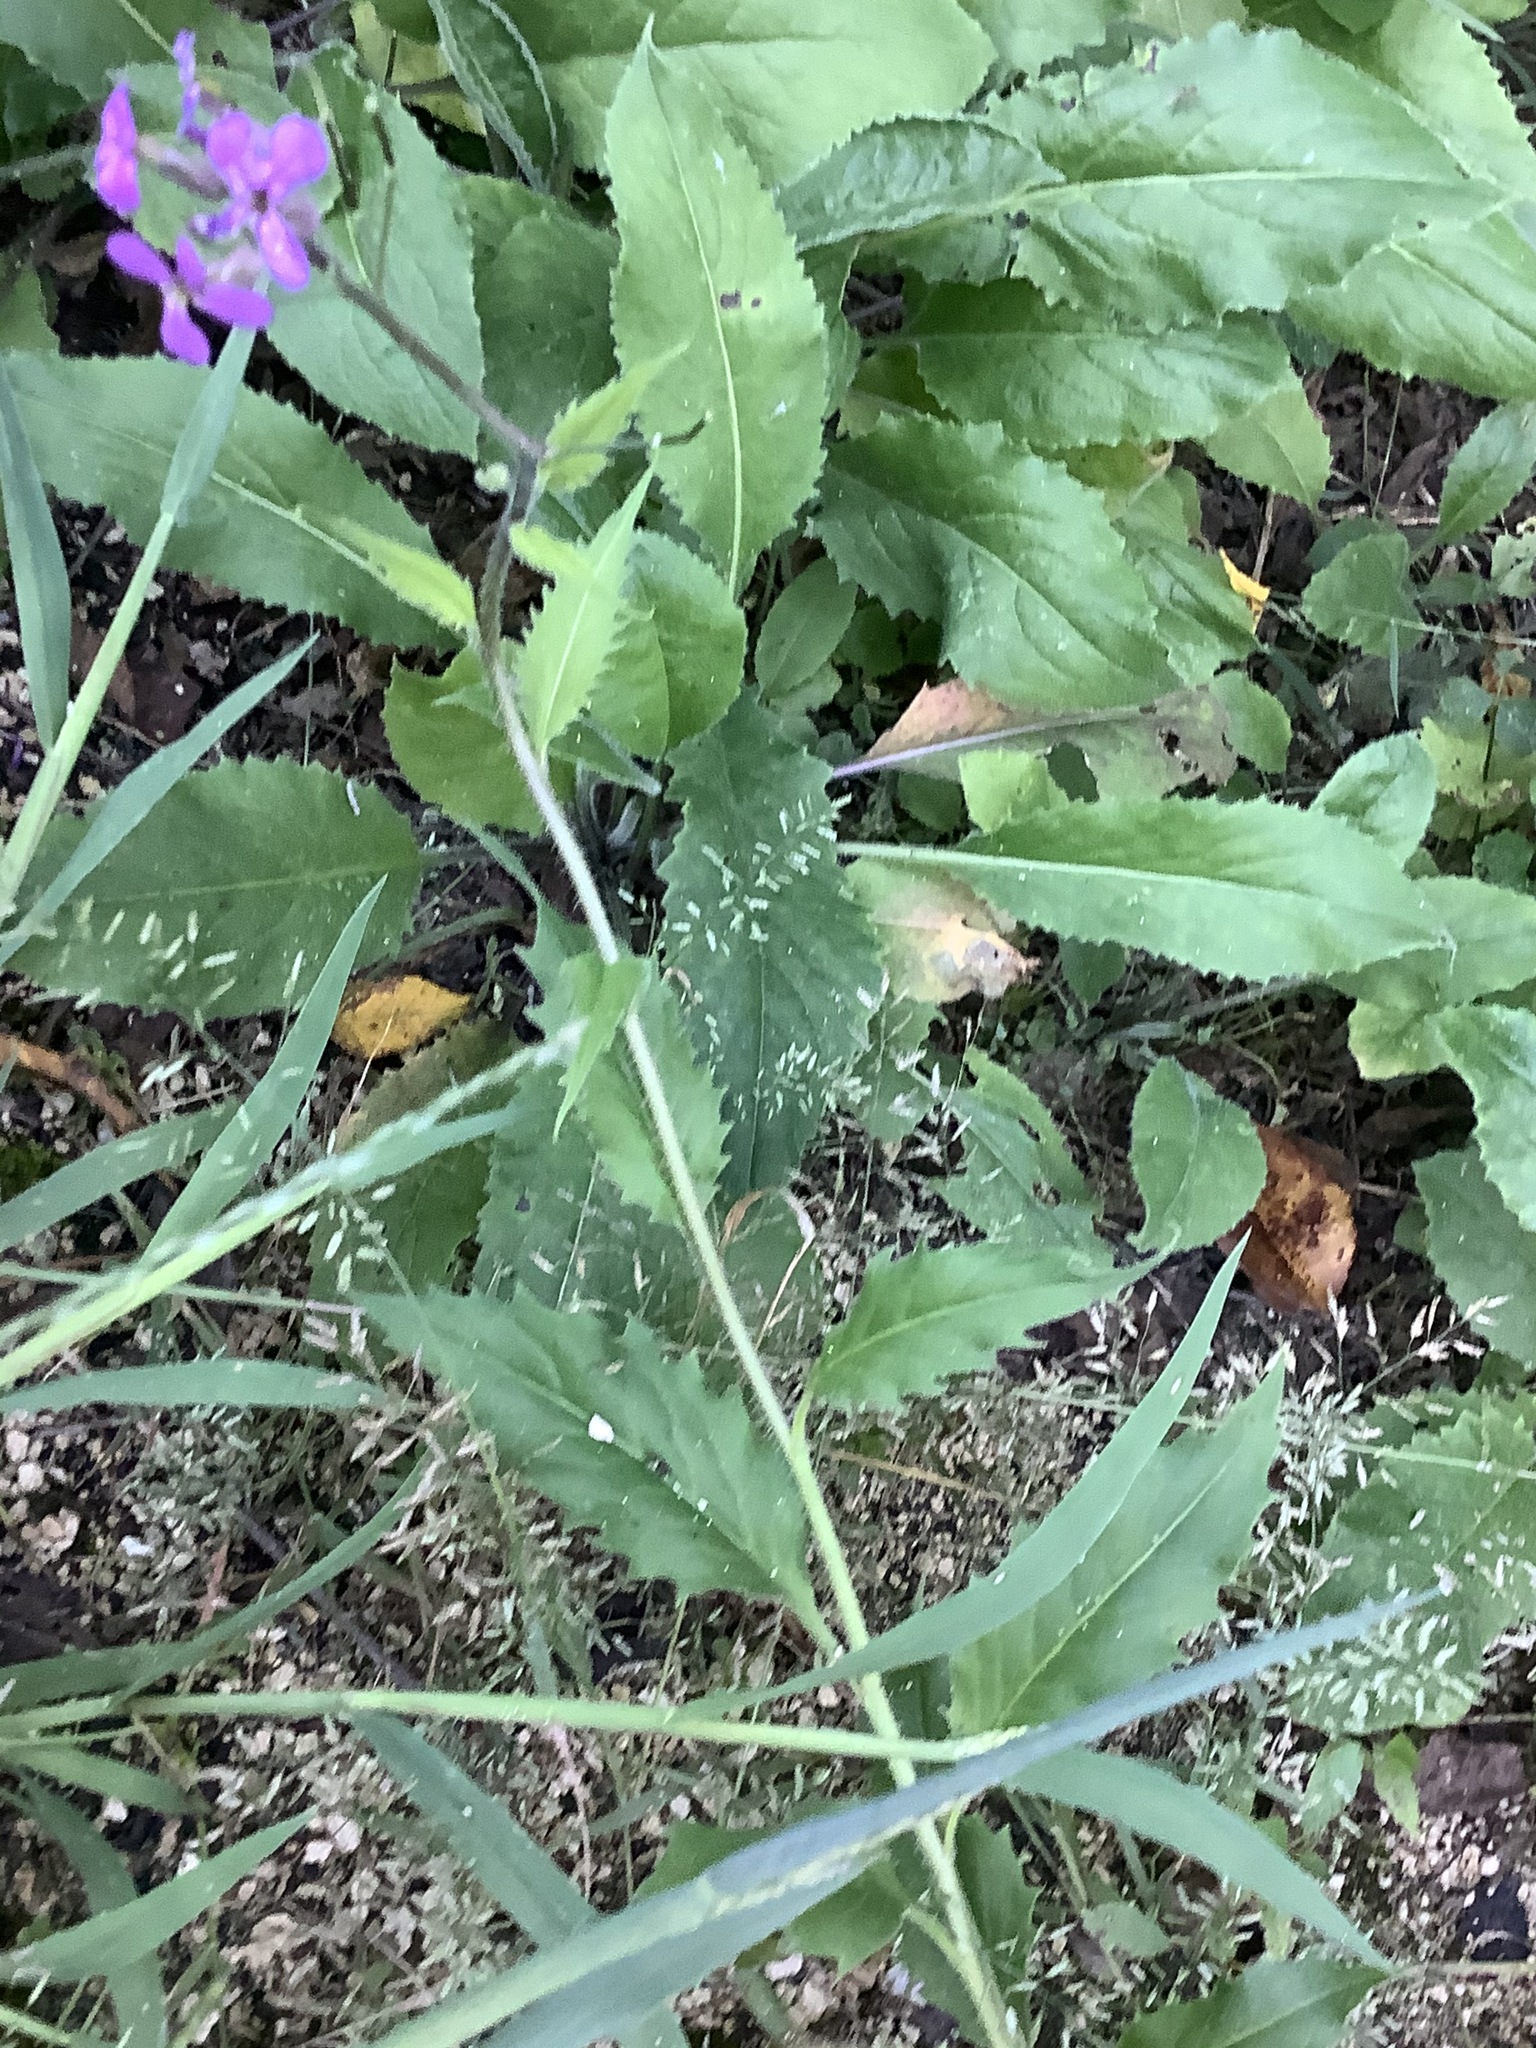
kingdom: Plantae
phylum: Tracheophyta
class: Magnoliopsida
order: Brassicales
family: Brassicaceae
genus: Hesperis
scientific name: Hesperis matronalis
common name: Dame's-violet
